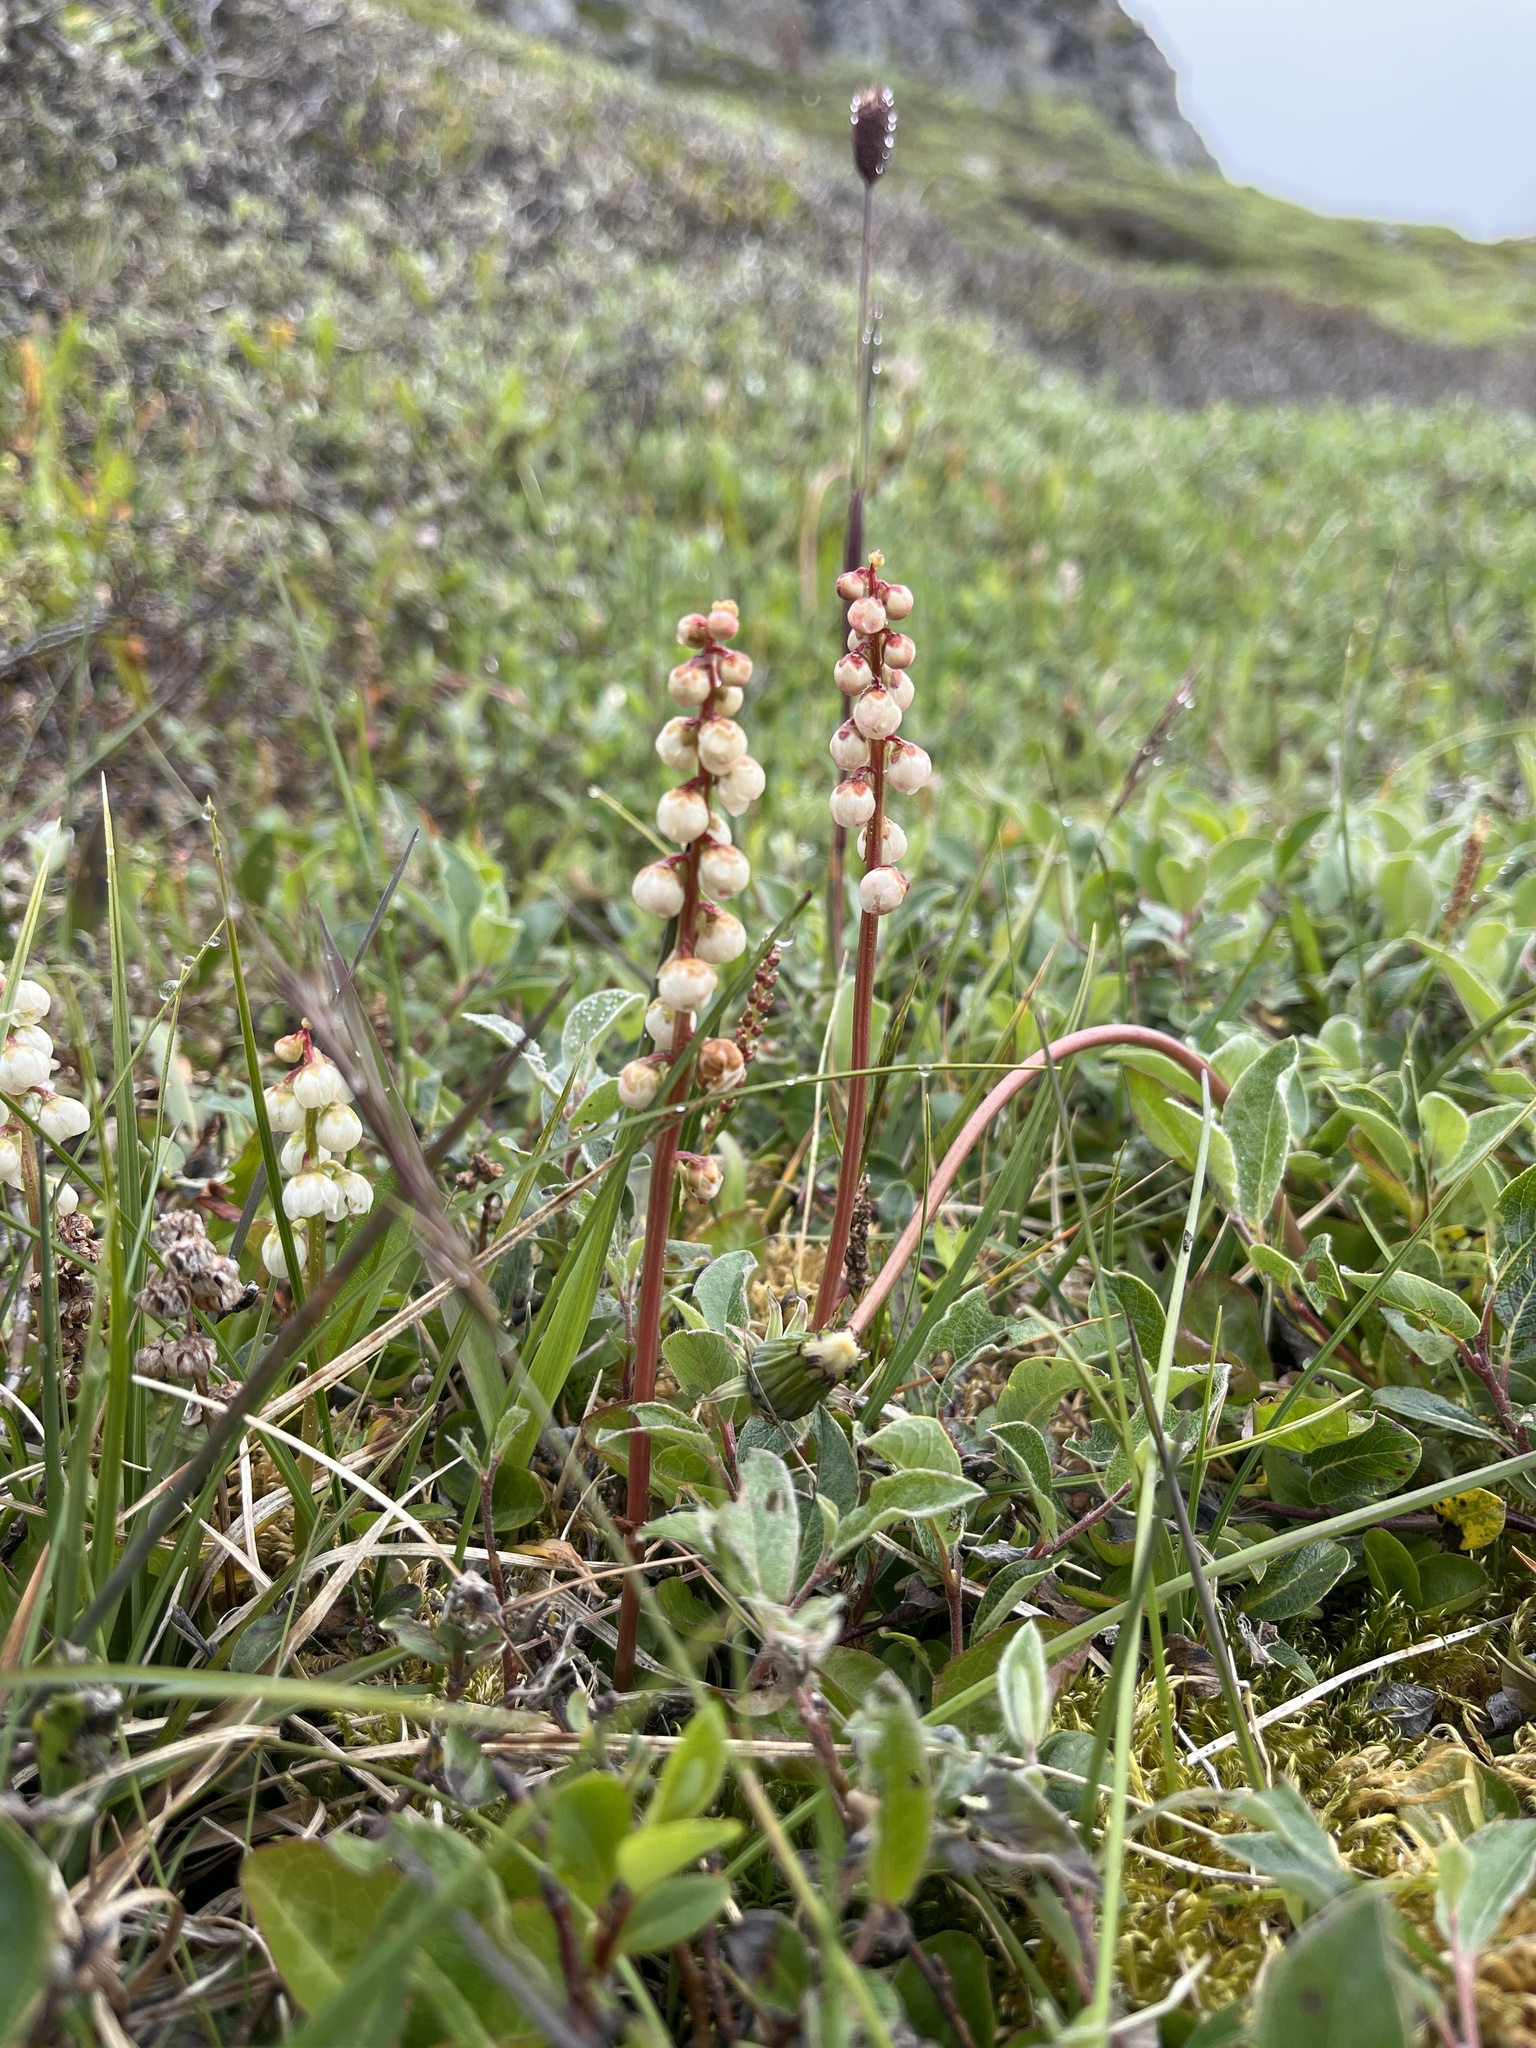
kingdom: Plantae
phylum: Tracheophyta
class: Magnoliopsida
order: Ericales
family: Ericaceae
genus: Pyrola
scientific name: Pyrola minor
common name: Common wintergreen
